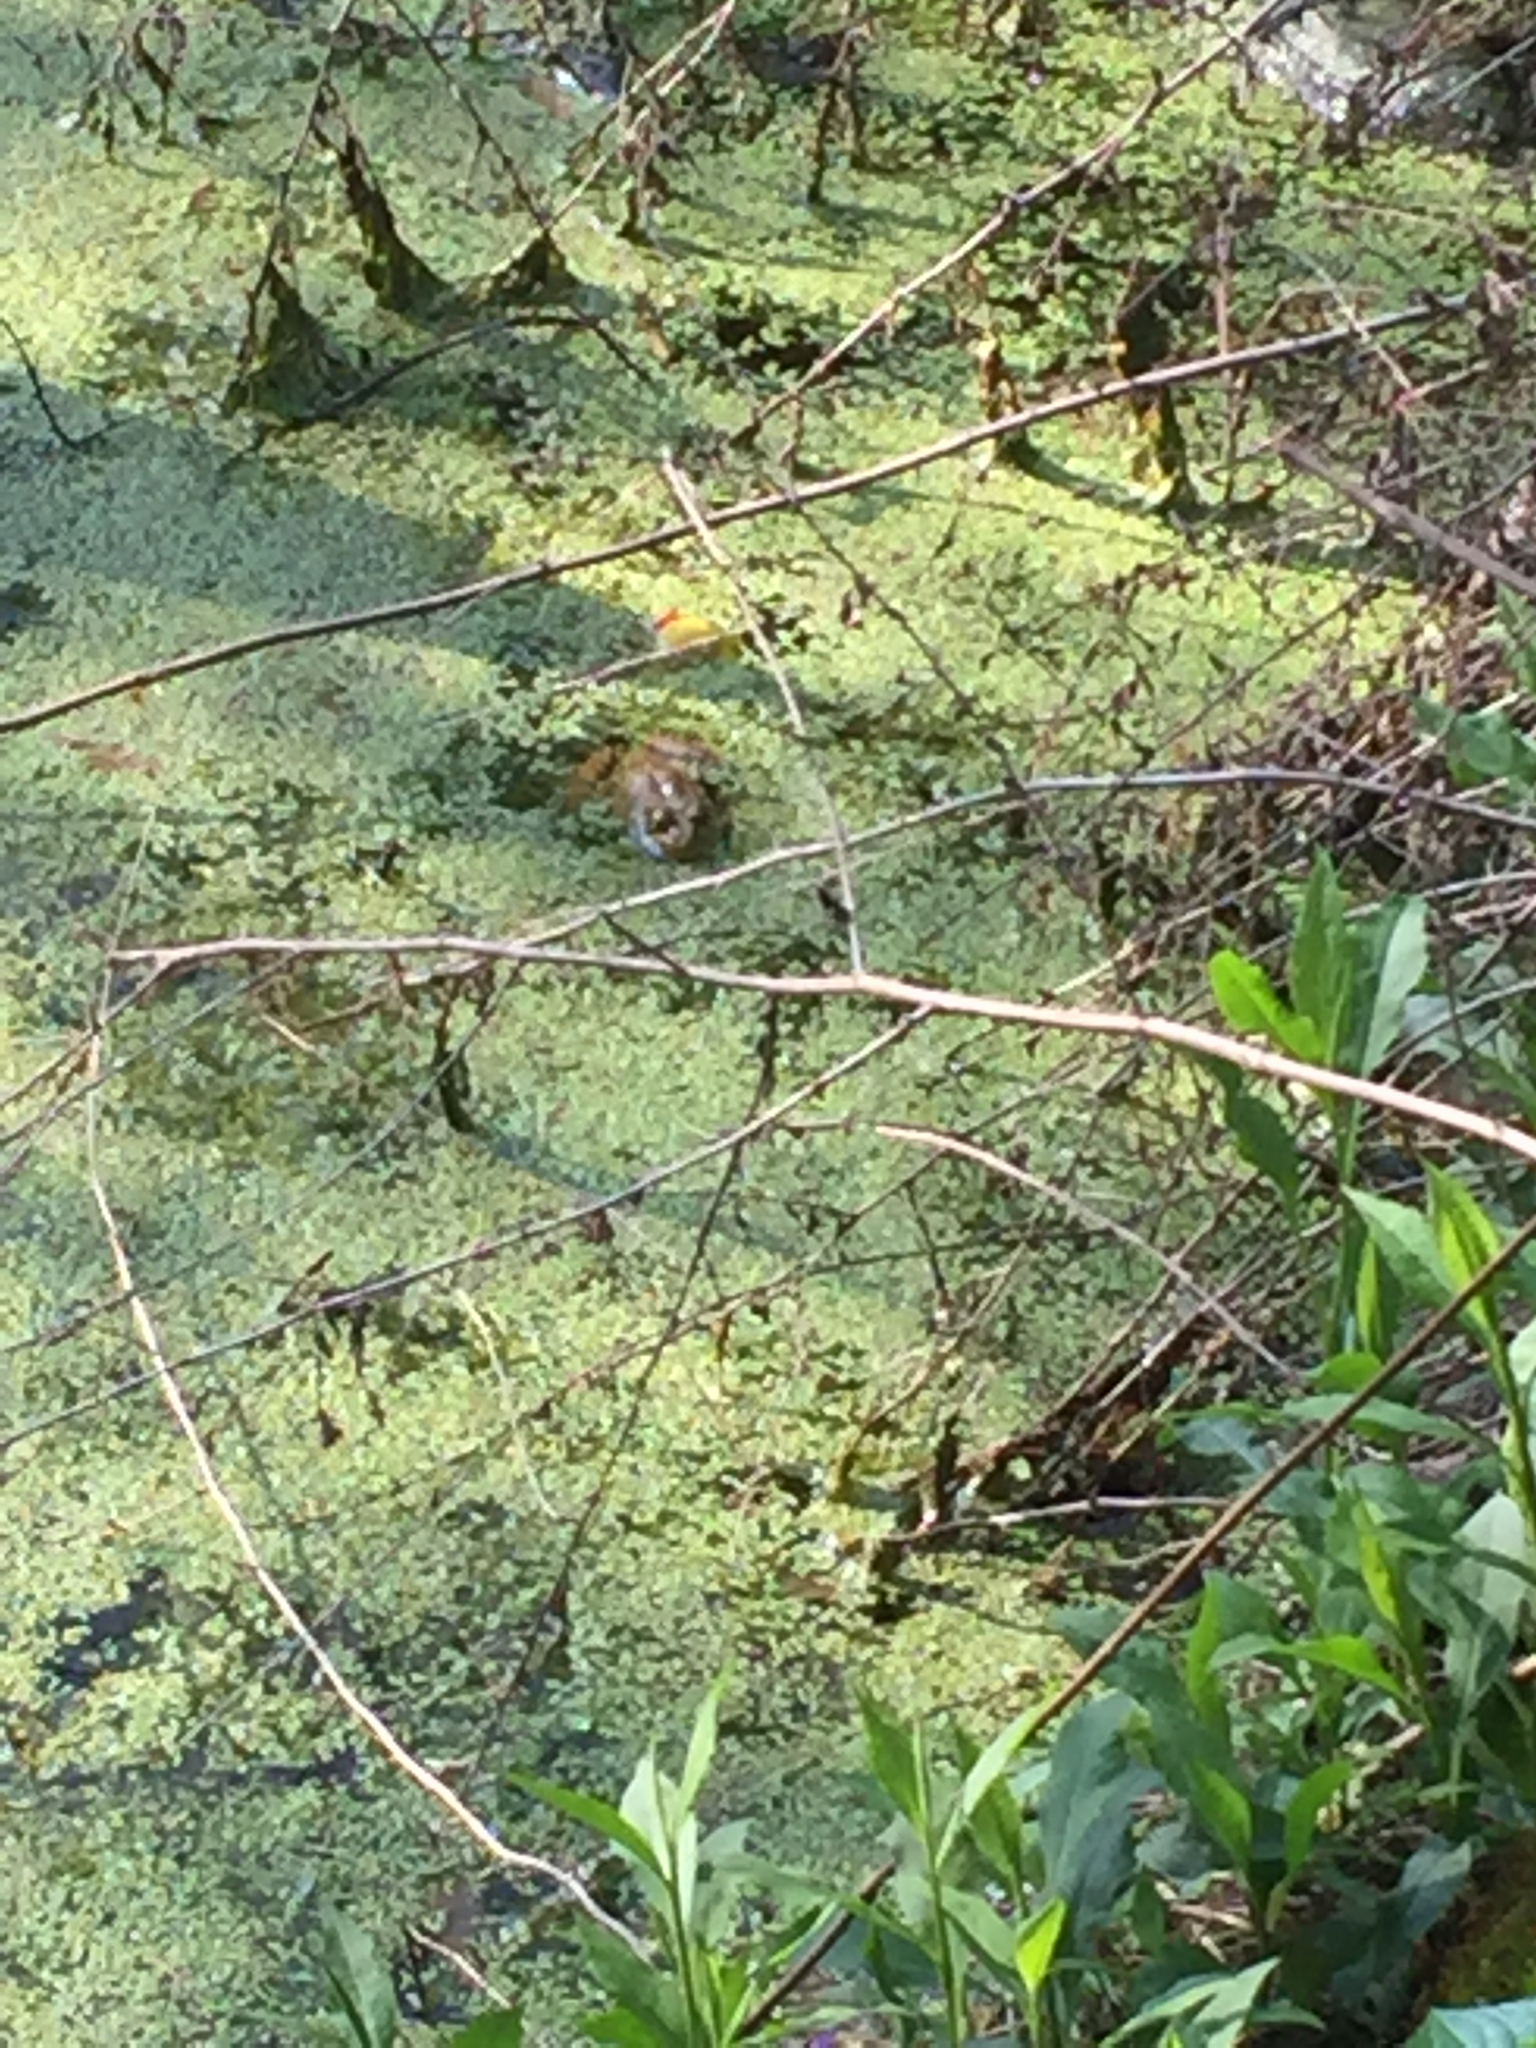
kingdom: Animalia
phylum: Chordata
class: Amphibia
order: Anura
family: Ranidae
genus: Lithobates
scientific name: Lithobates
